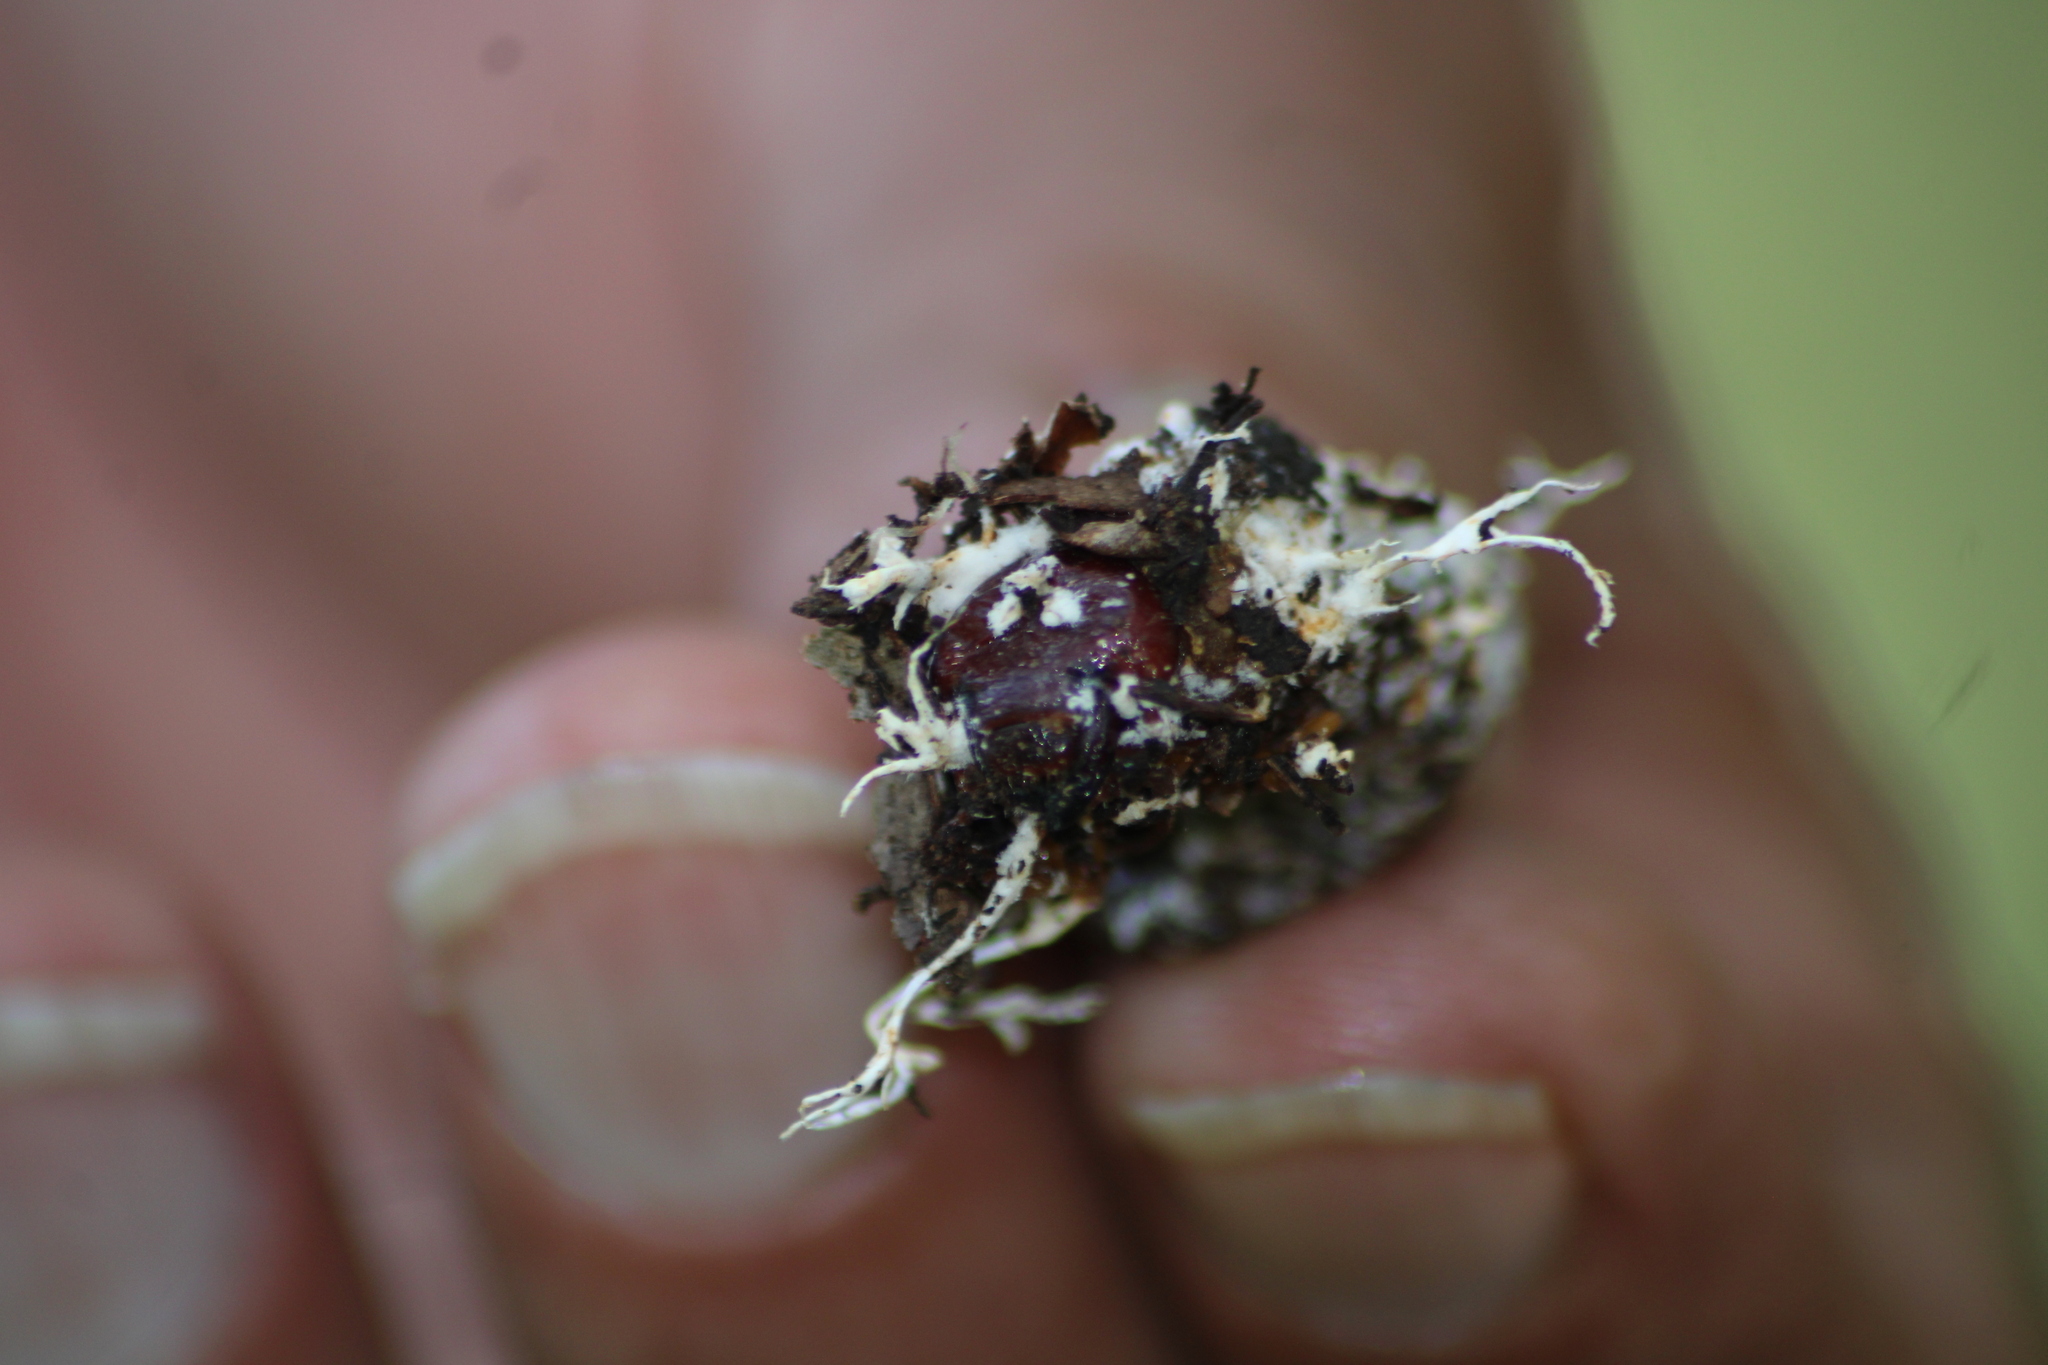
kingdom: Fungi
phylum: Ascomycota
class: Sordariomycetes
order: Hypocreales
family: Cordycipitaceae
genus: Cordyceps
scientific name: Cordyceps tenuipes
